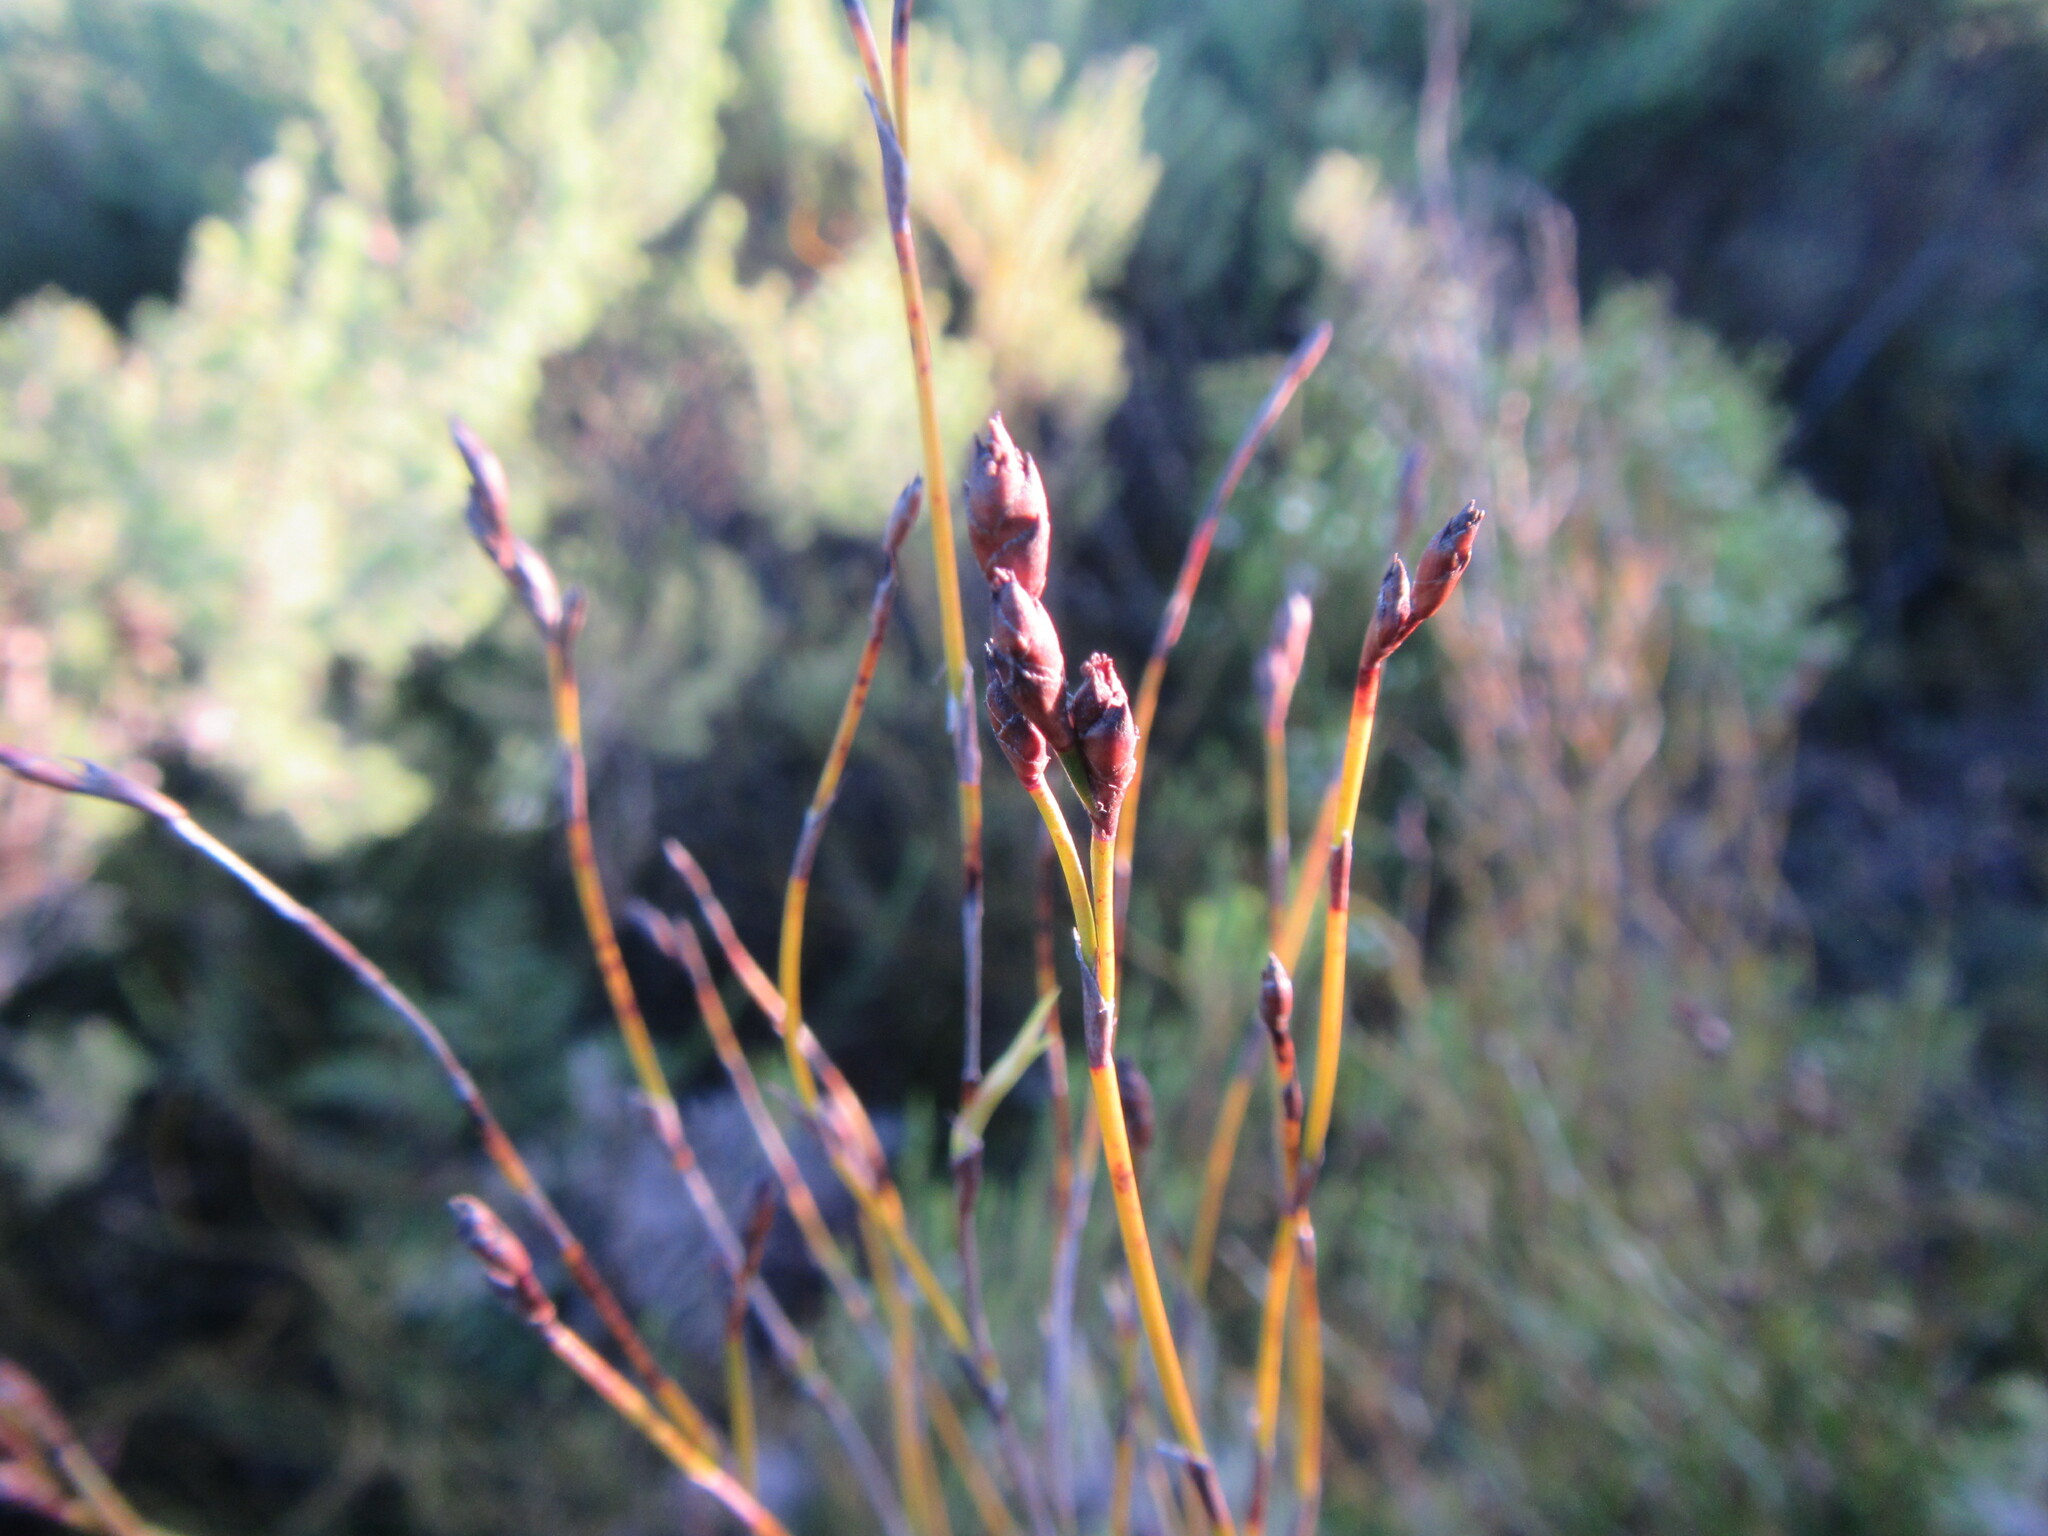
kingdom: Plantae
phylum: Tracheophyta
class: Liliopsida
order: Poales
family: Restionaceae
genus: Restio
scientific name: Restio gaudichaudianus
